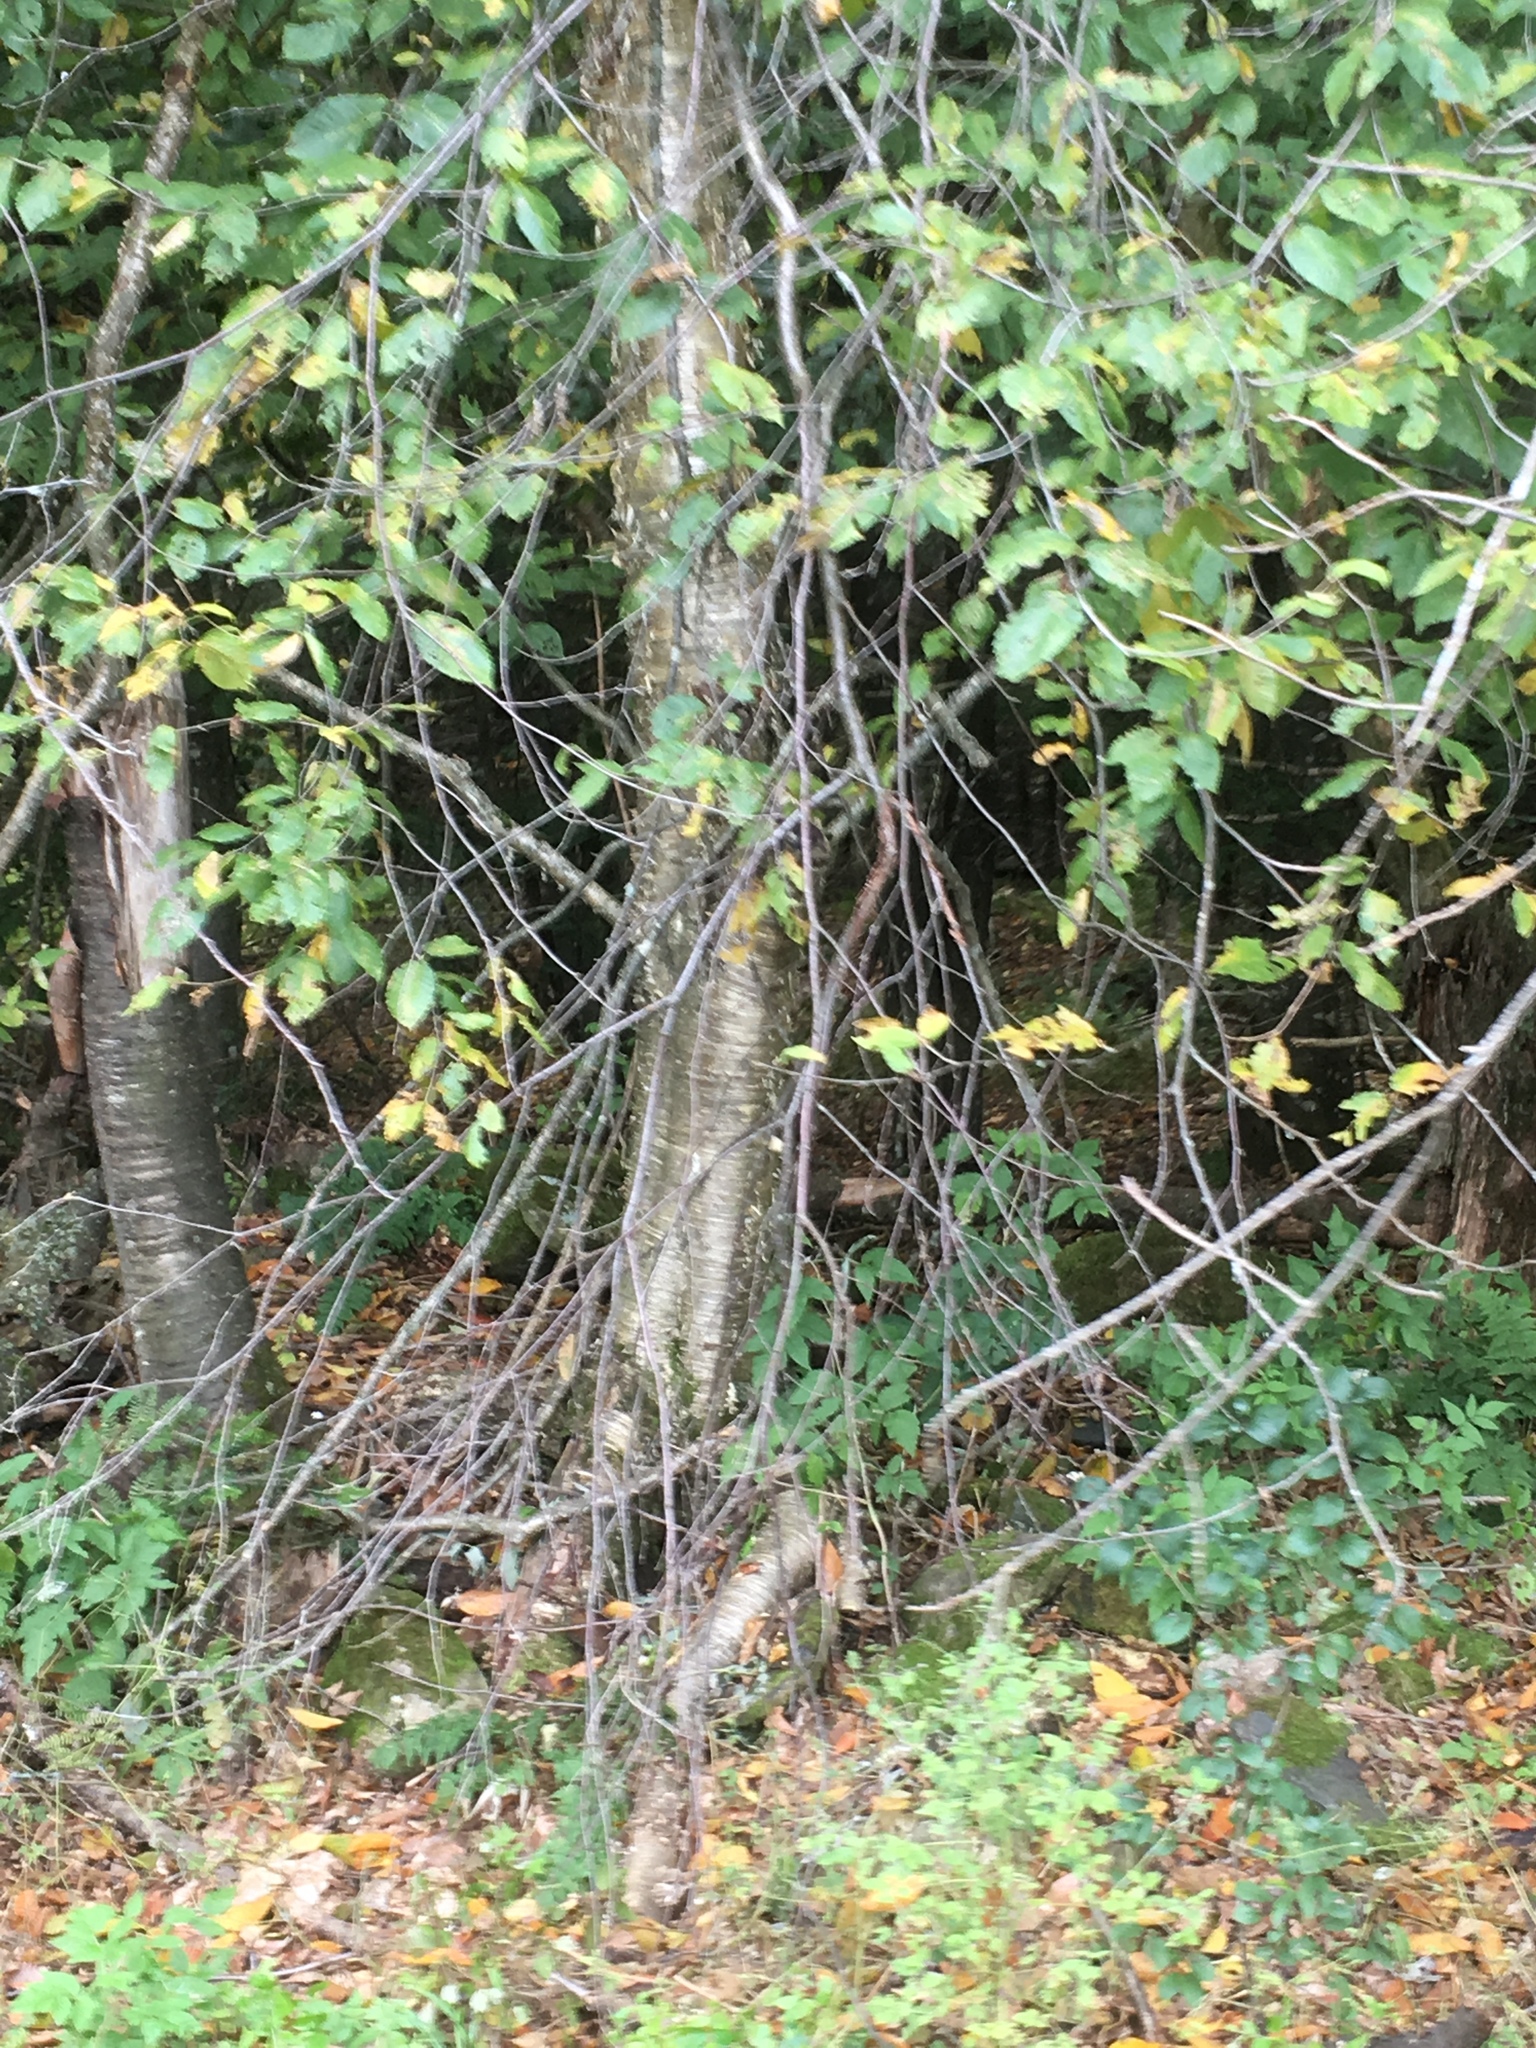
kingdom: Plantae
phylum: Tracheophyta
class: Magnoliopsida
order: Fagales
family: Betulaceae
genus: Betula
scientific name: Betula alleghaniensis
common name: Yellow birch
